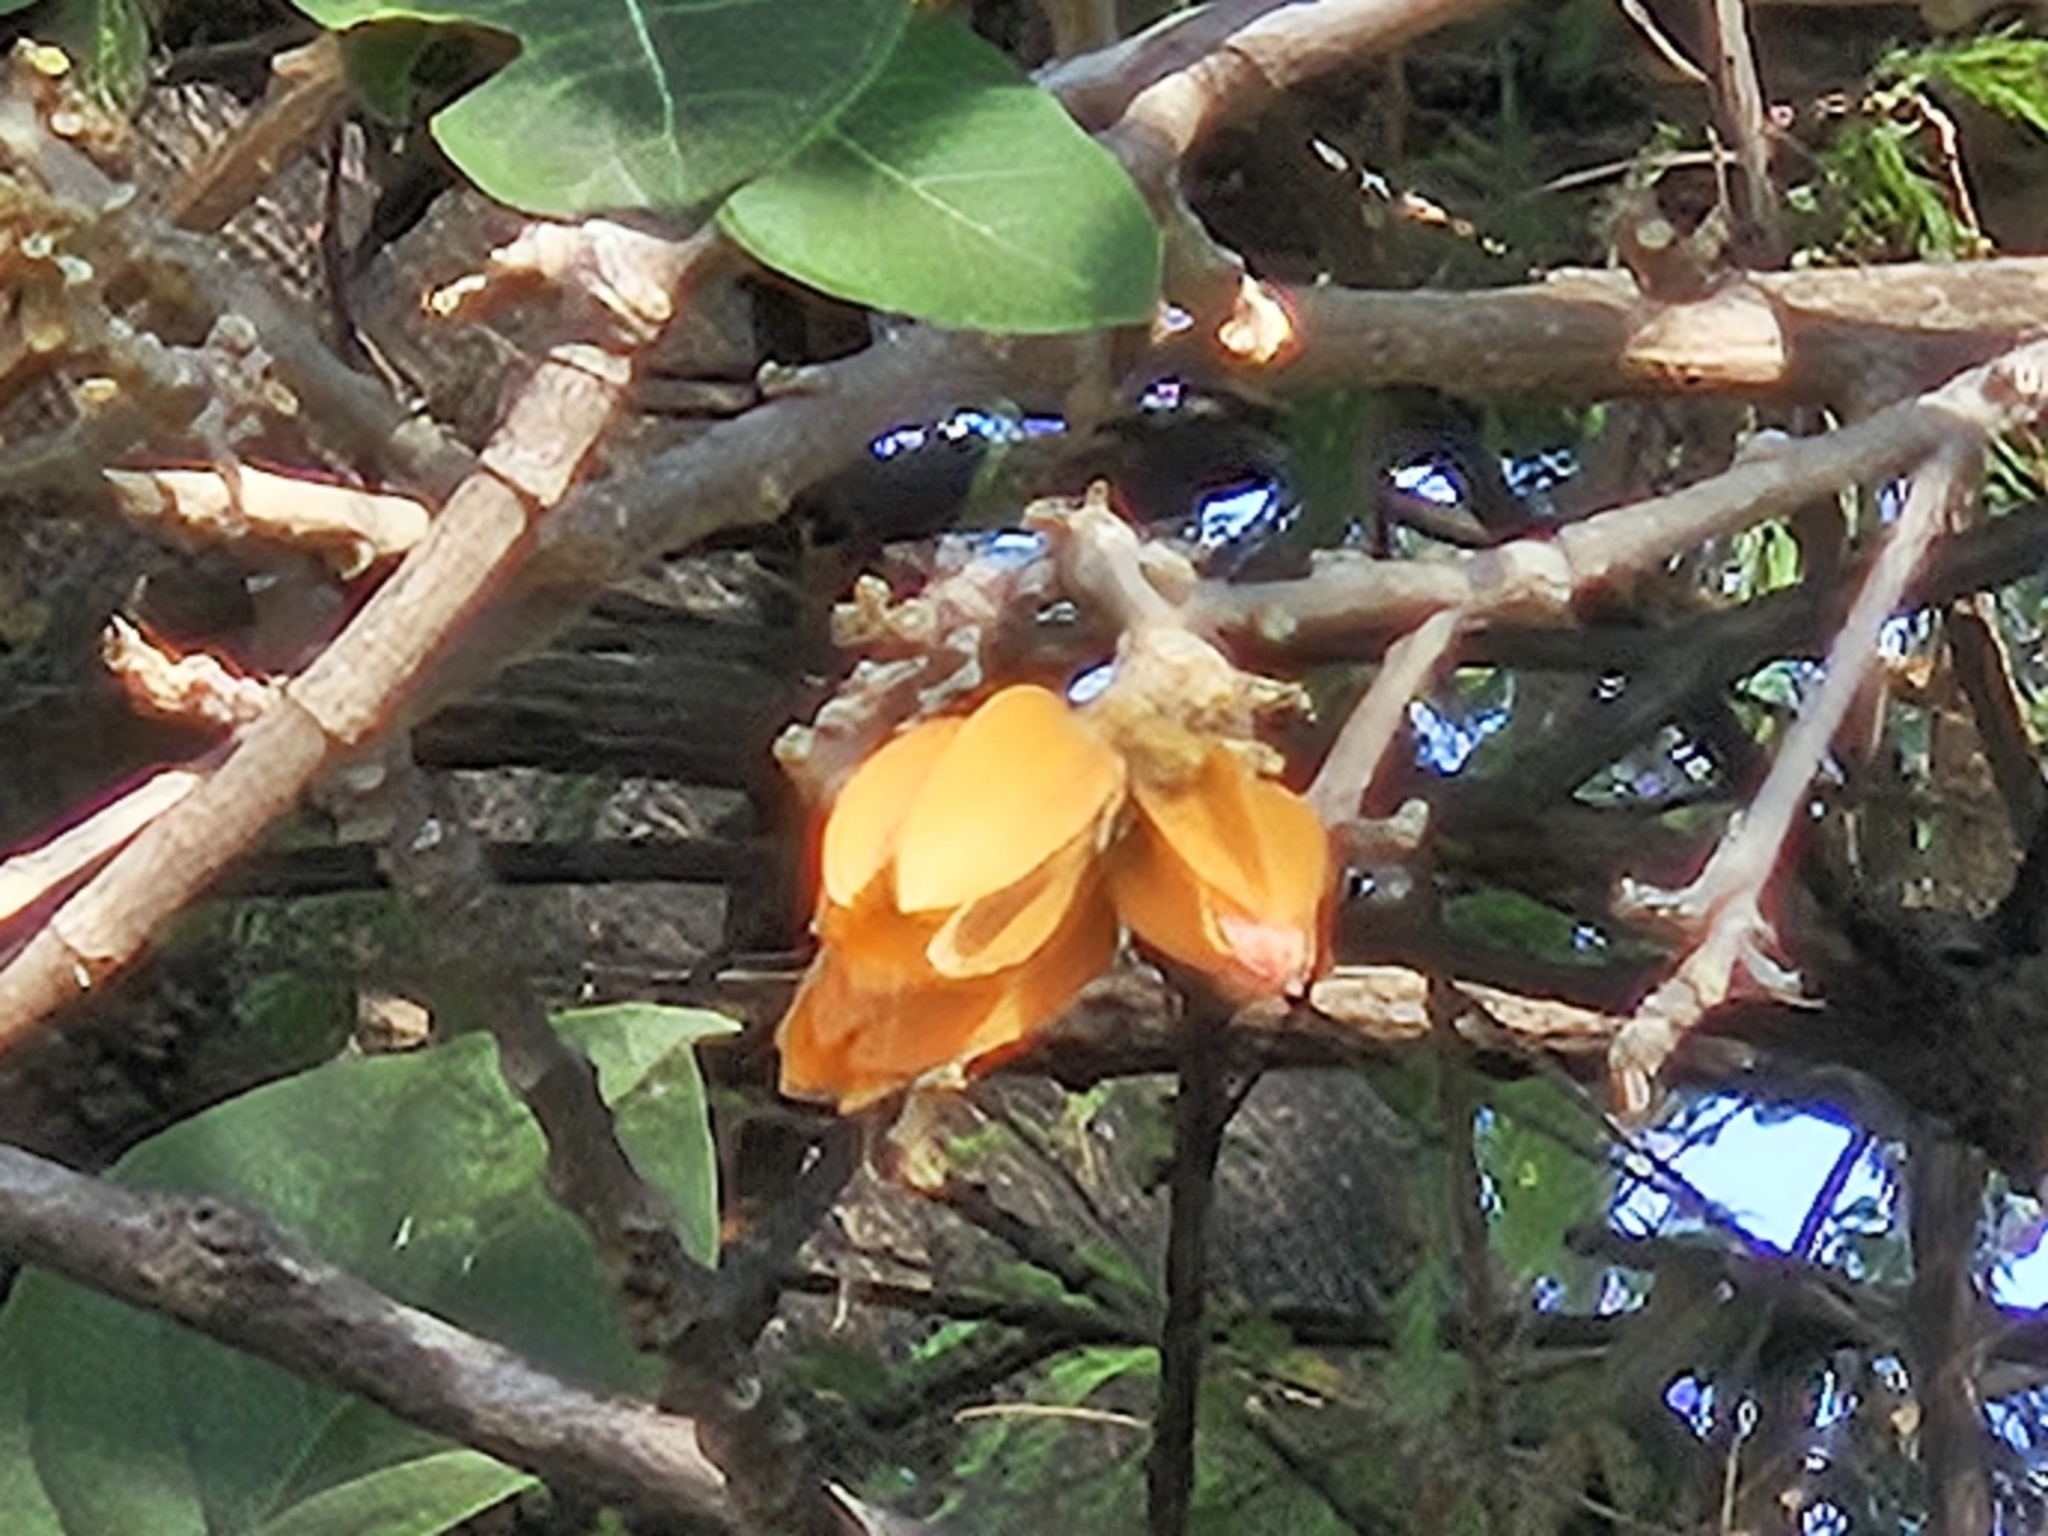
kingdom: Plantae
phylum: Tracheophyta
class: Magnoliopsida
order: Solanales
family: Solanaceae
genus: Juanulloa
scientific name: Juanulloa mexicana
